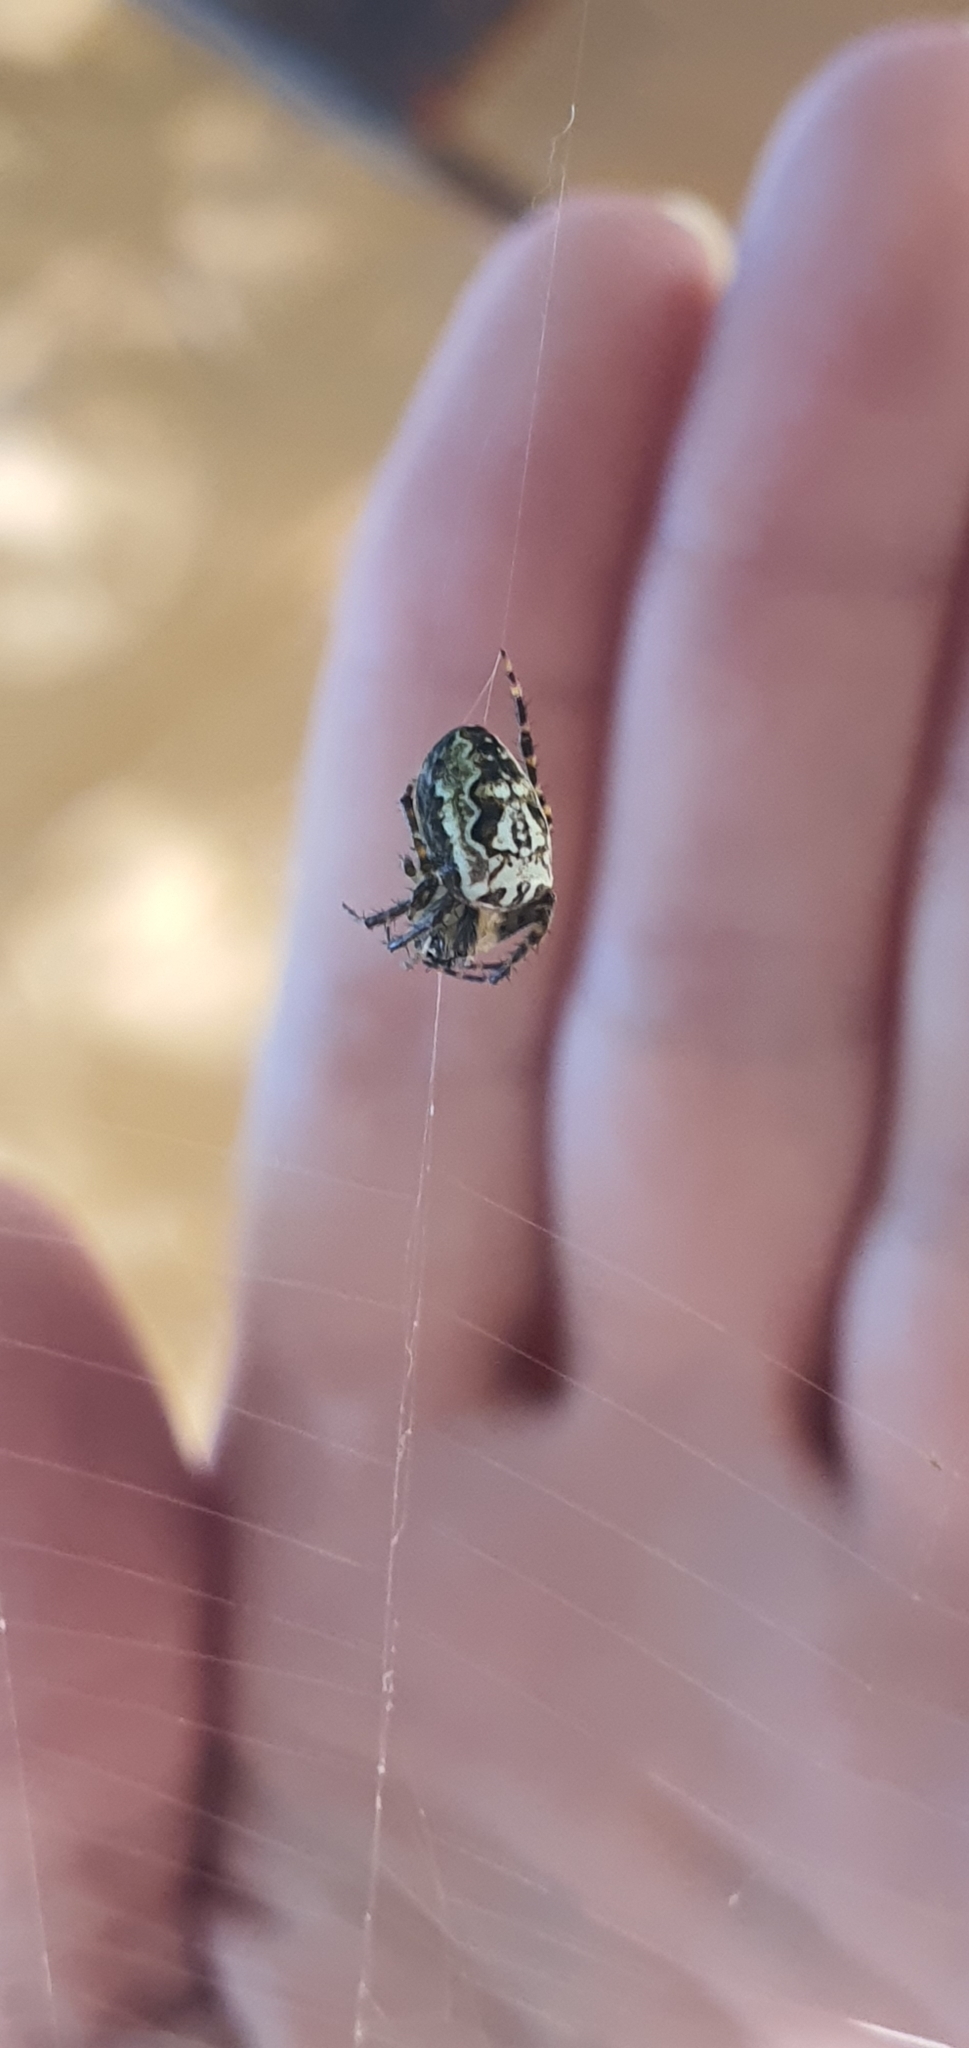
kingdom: Animalia
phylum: Arthropoda
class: Arachnida
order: Araneae
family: Araneidae
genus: Plebs
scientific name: Plebs eburnus
